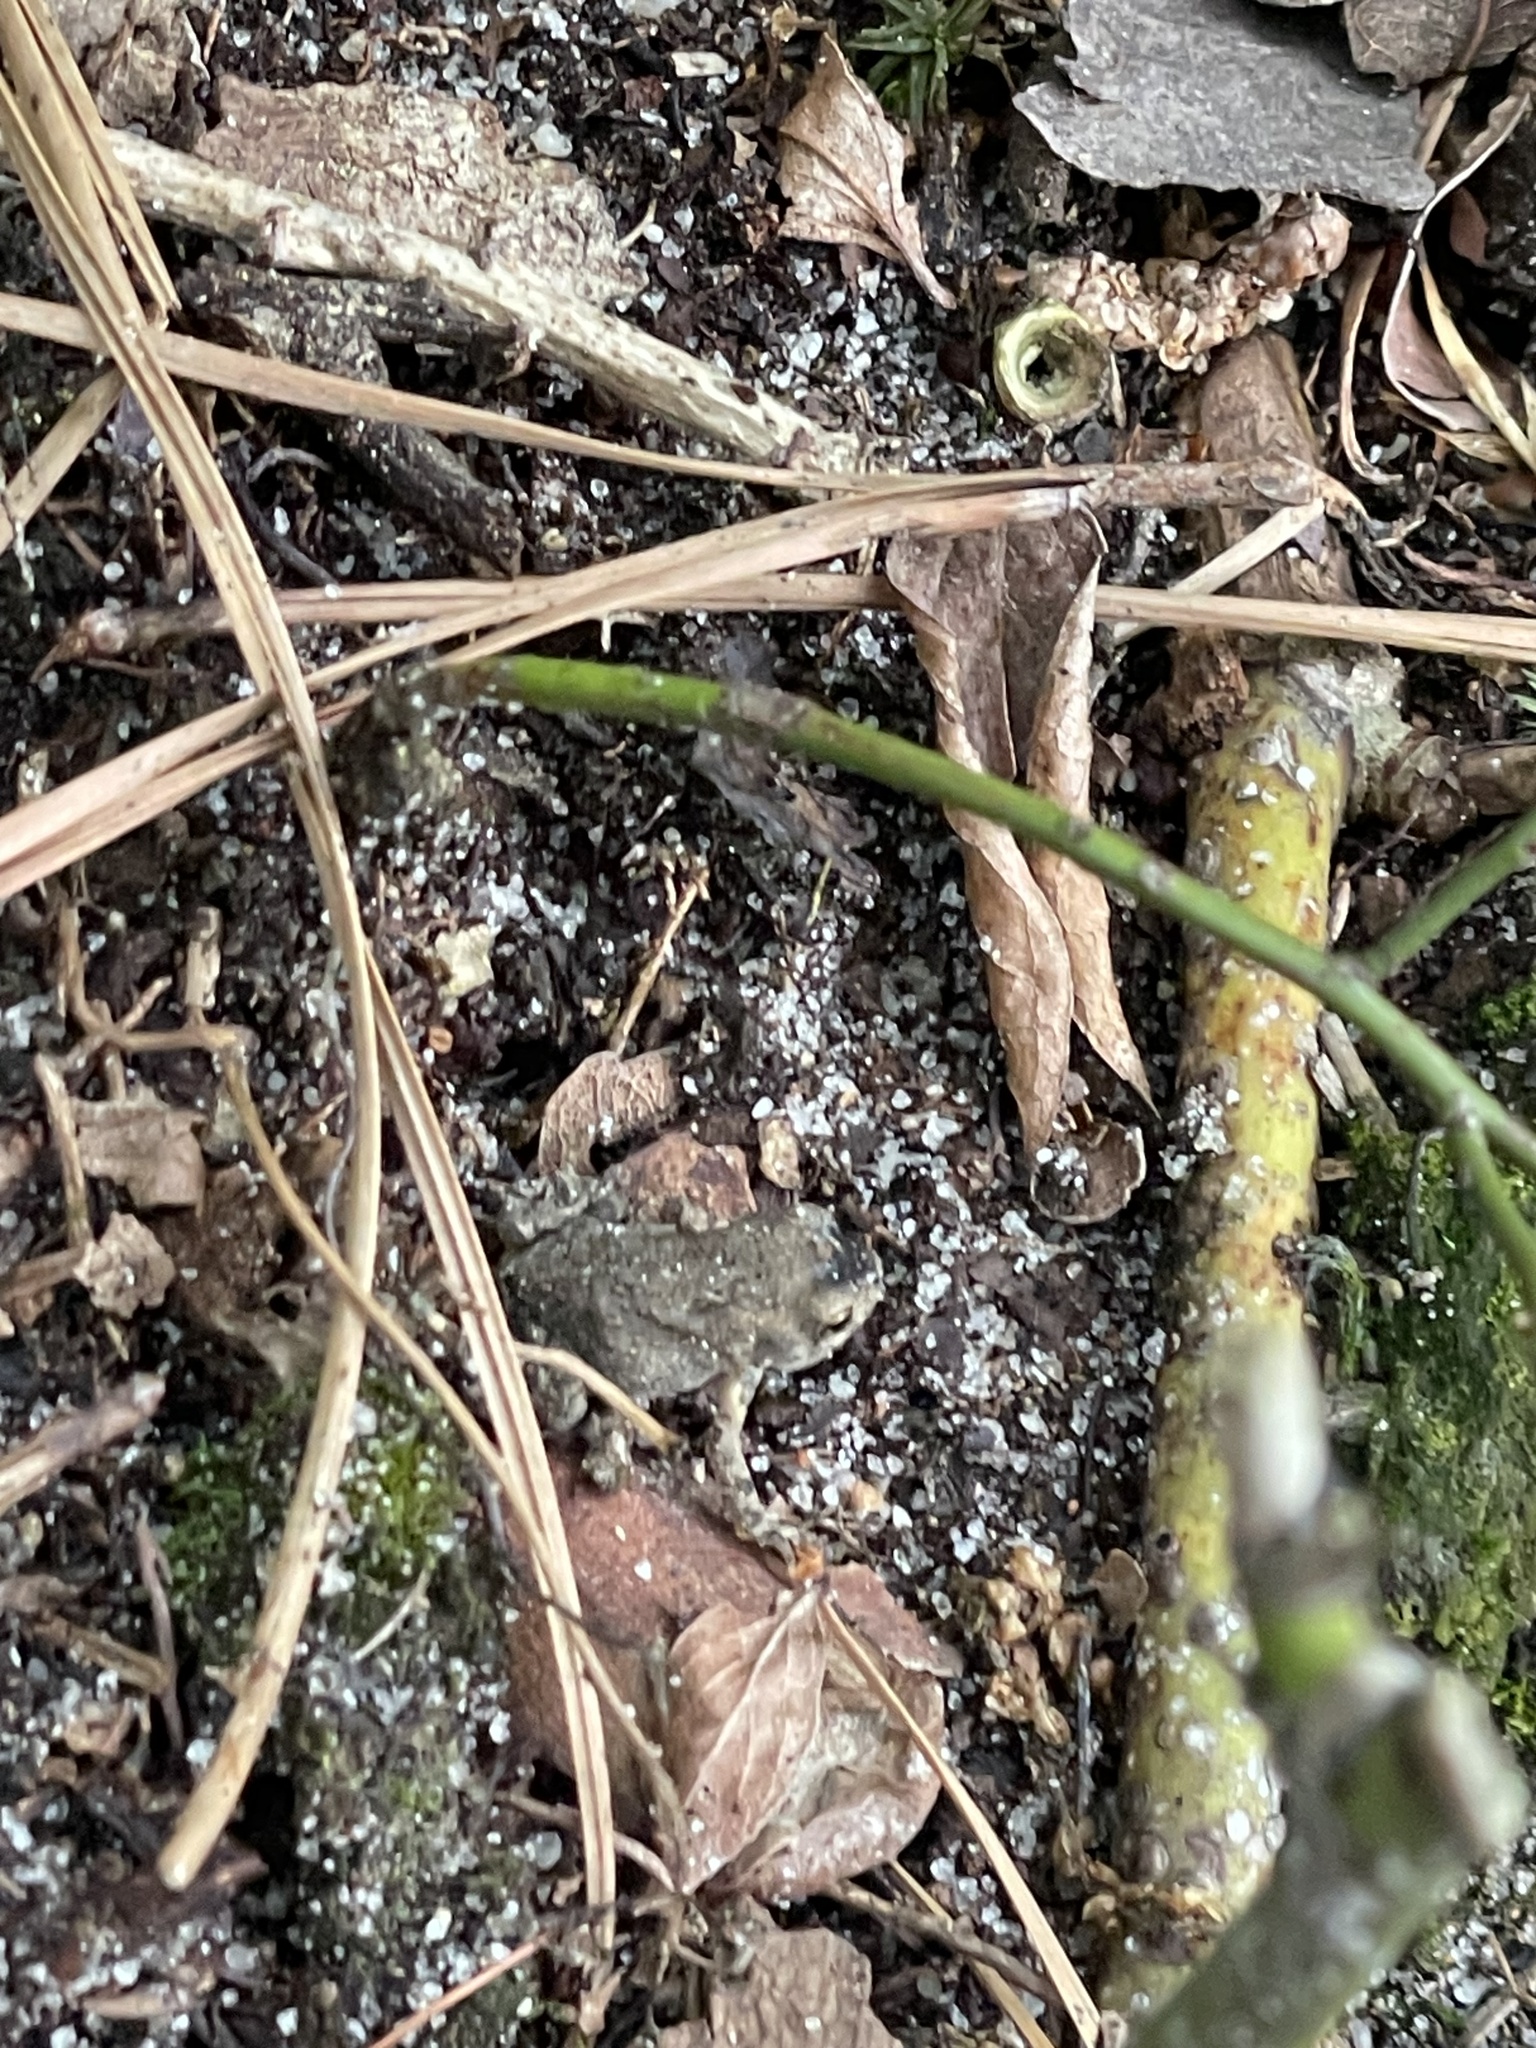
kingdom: Animalia
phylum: Chordata
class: Amphibia
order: Anura
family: Bufonidae
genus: Anaxyrus
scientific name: Anaxyrus fowleri
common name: Fowler's toad
